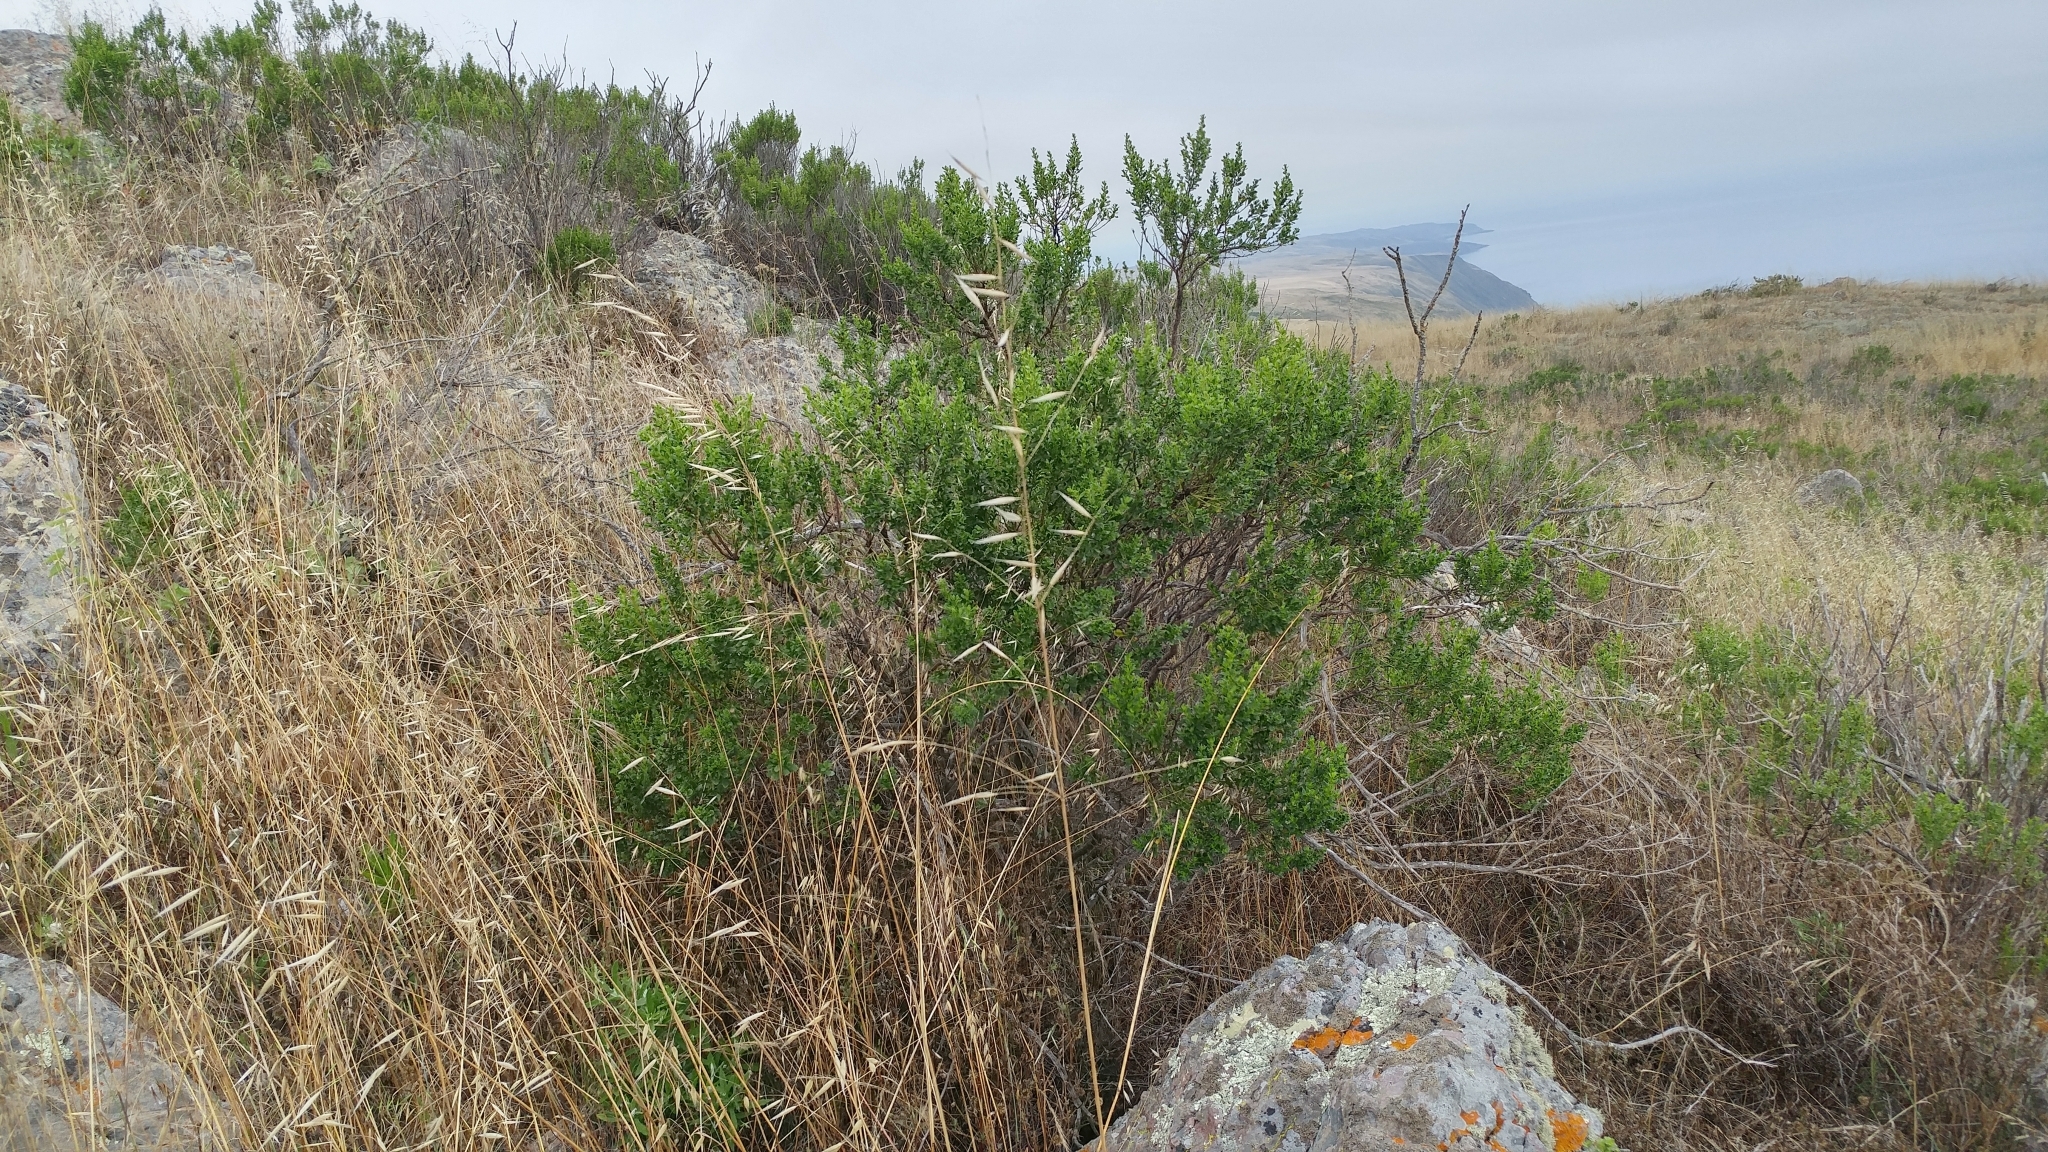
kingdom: Plantae
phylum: Tracheophyta
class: Magnoliopsida
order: Asterales
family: Asteraceae
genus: Baccharis
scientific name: Baccharis pilularis
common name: Coyotebrush
